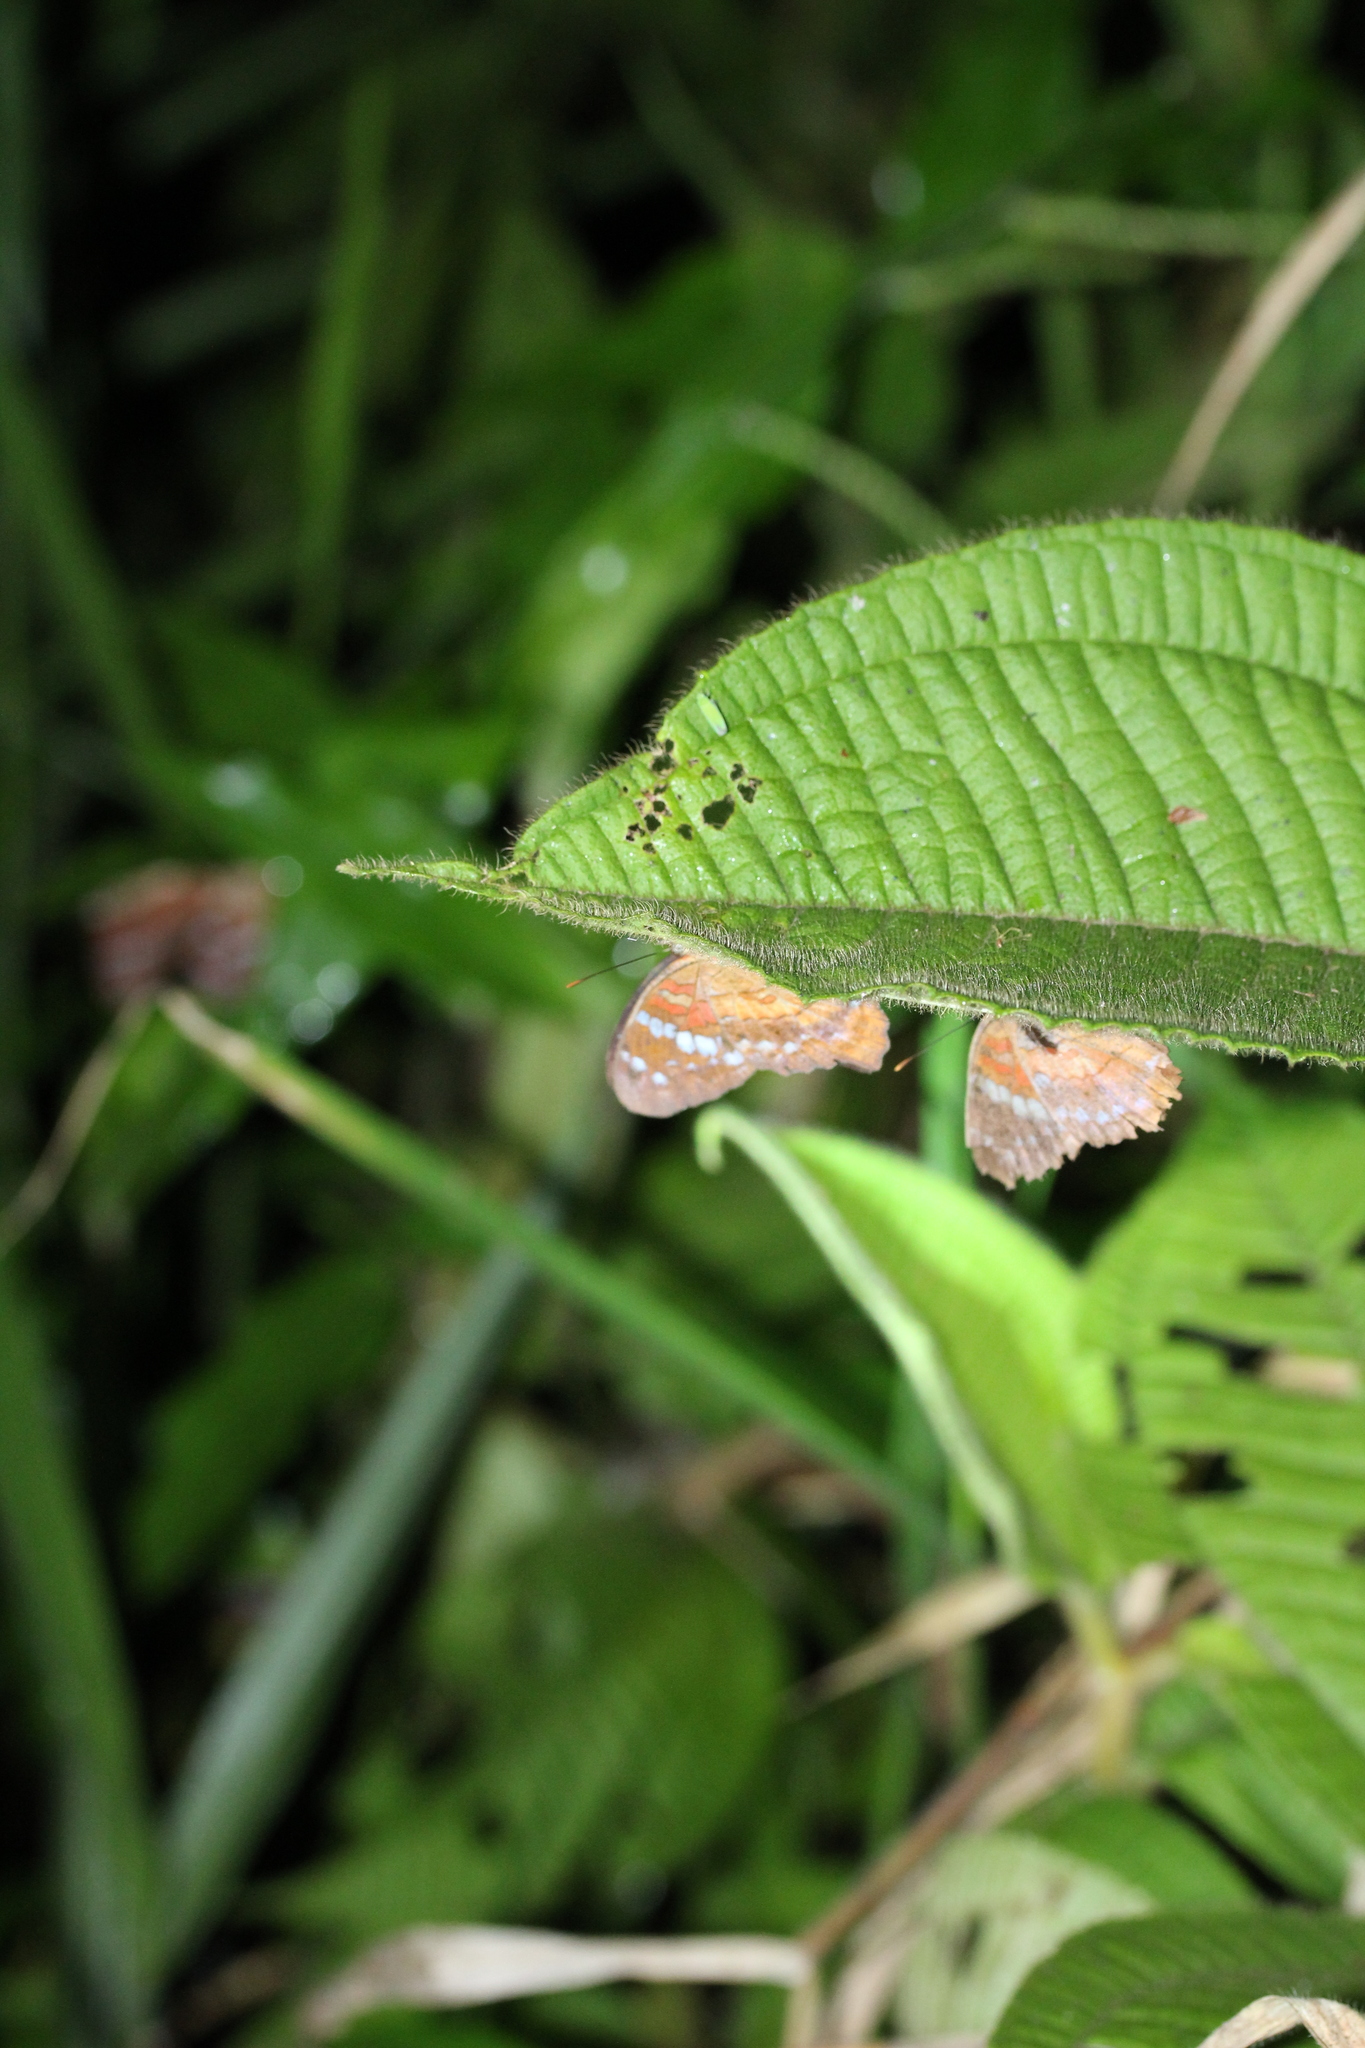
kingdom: Animalia
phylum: Arthropoda
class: Insecta
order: Lepidoptera
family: Nymphalidae
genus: Anartia
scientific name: Anartia amathea
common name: Red peacock
